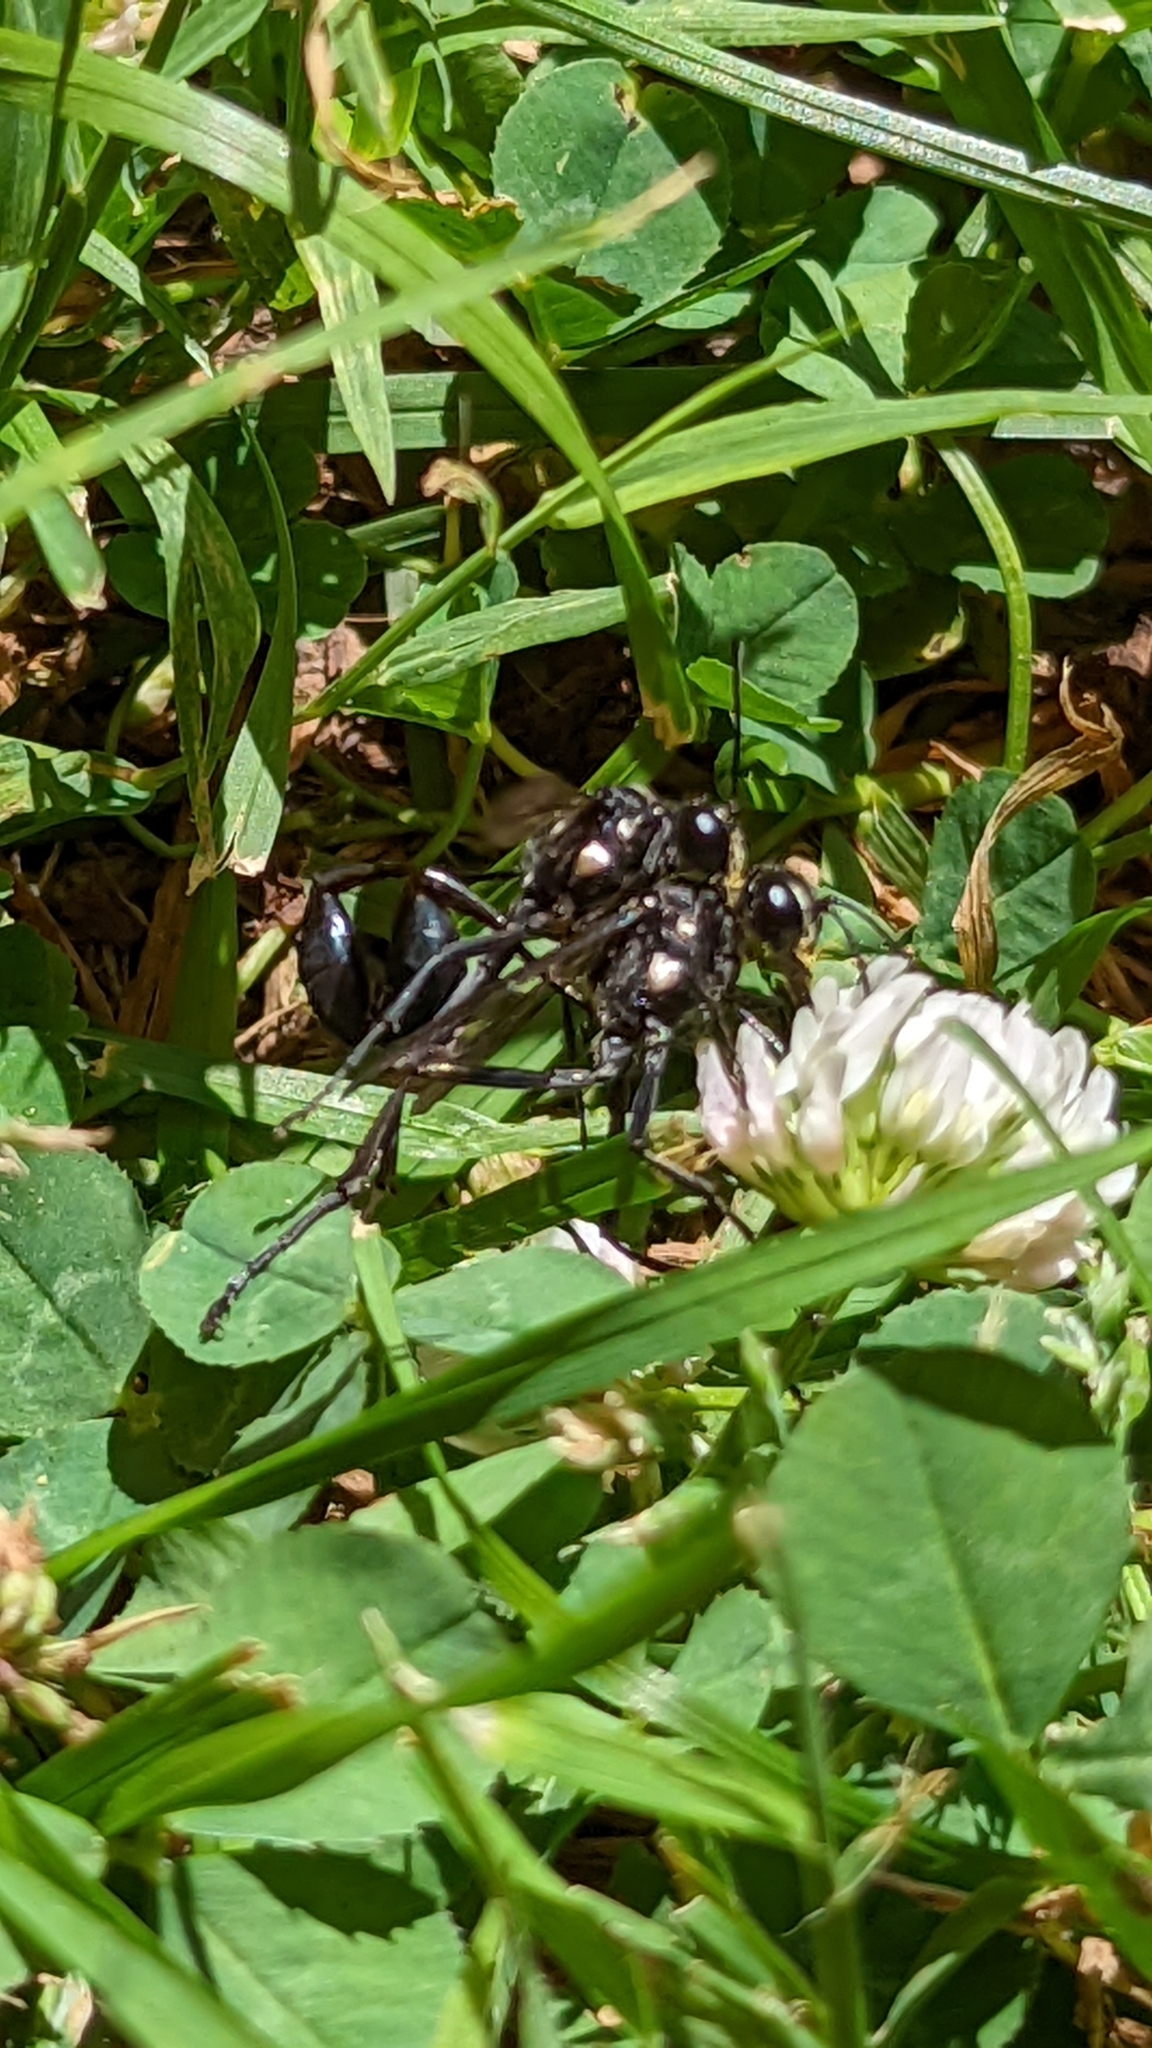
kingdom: Animalia
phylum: Arthropoda
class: Insecta
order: Hymenoptera
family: Sphecidae
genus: Eremnophila
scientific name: Eremnophila aureonotata
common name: Gold-marked thread-waisted wasp
